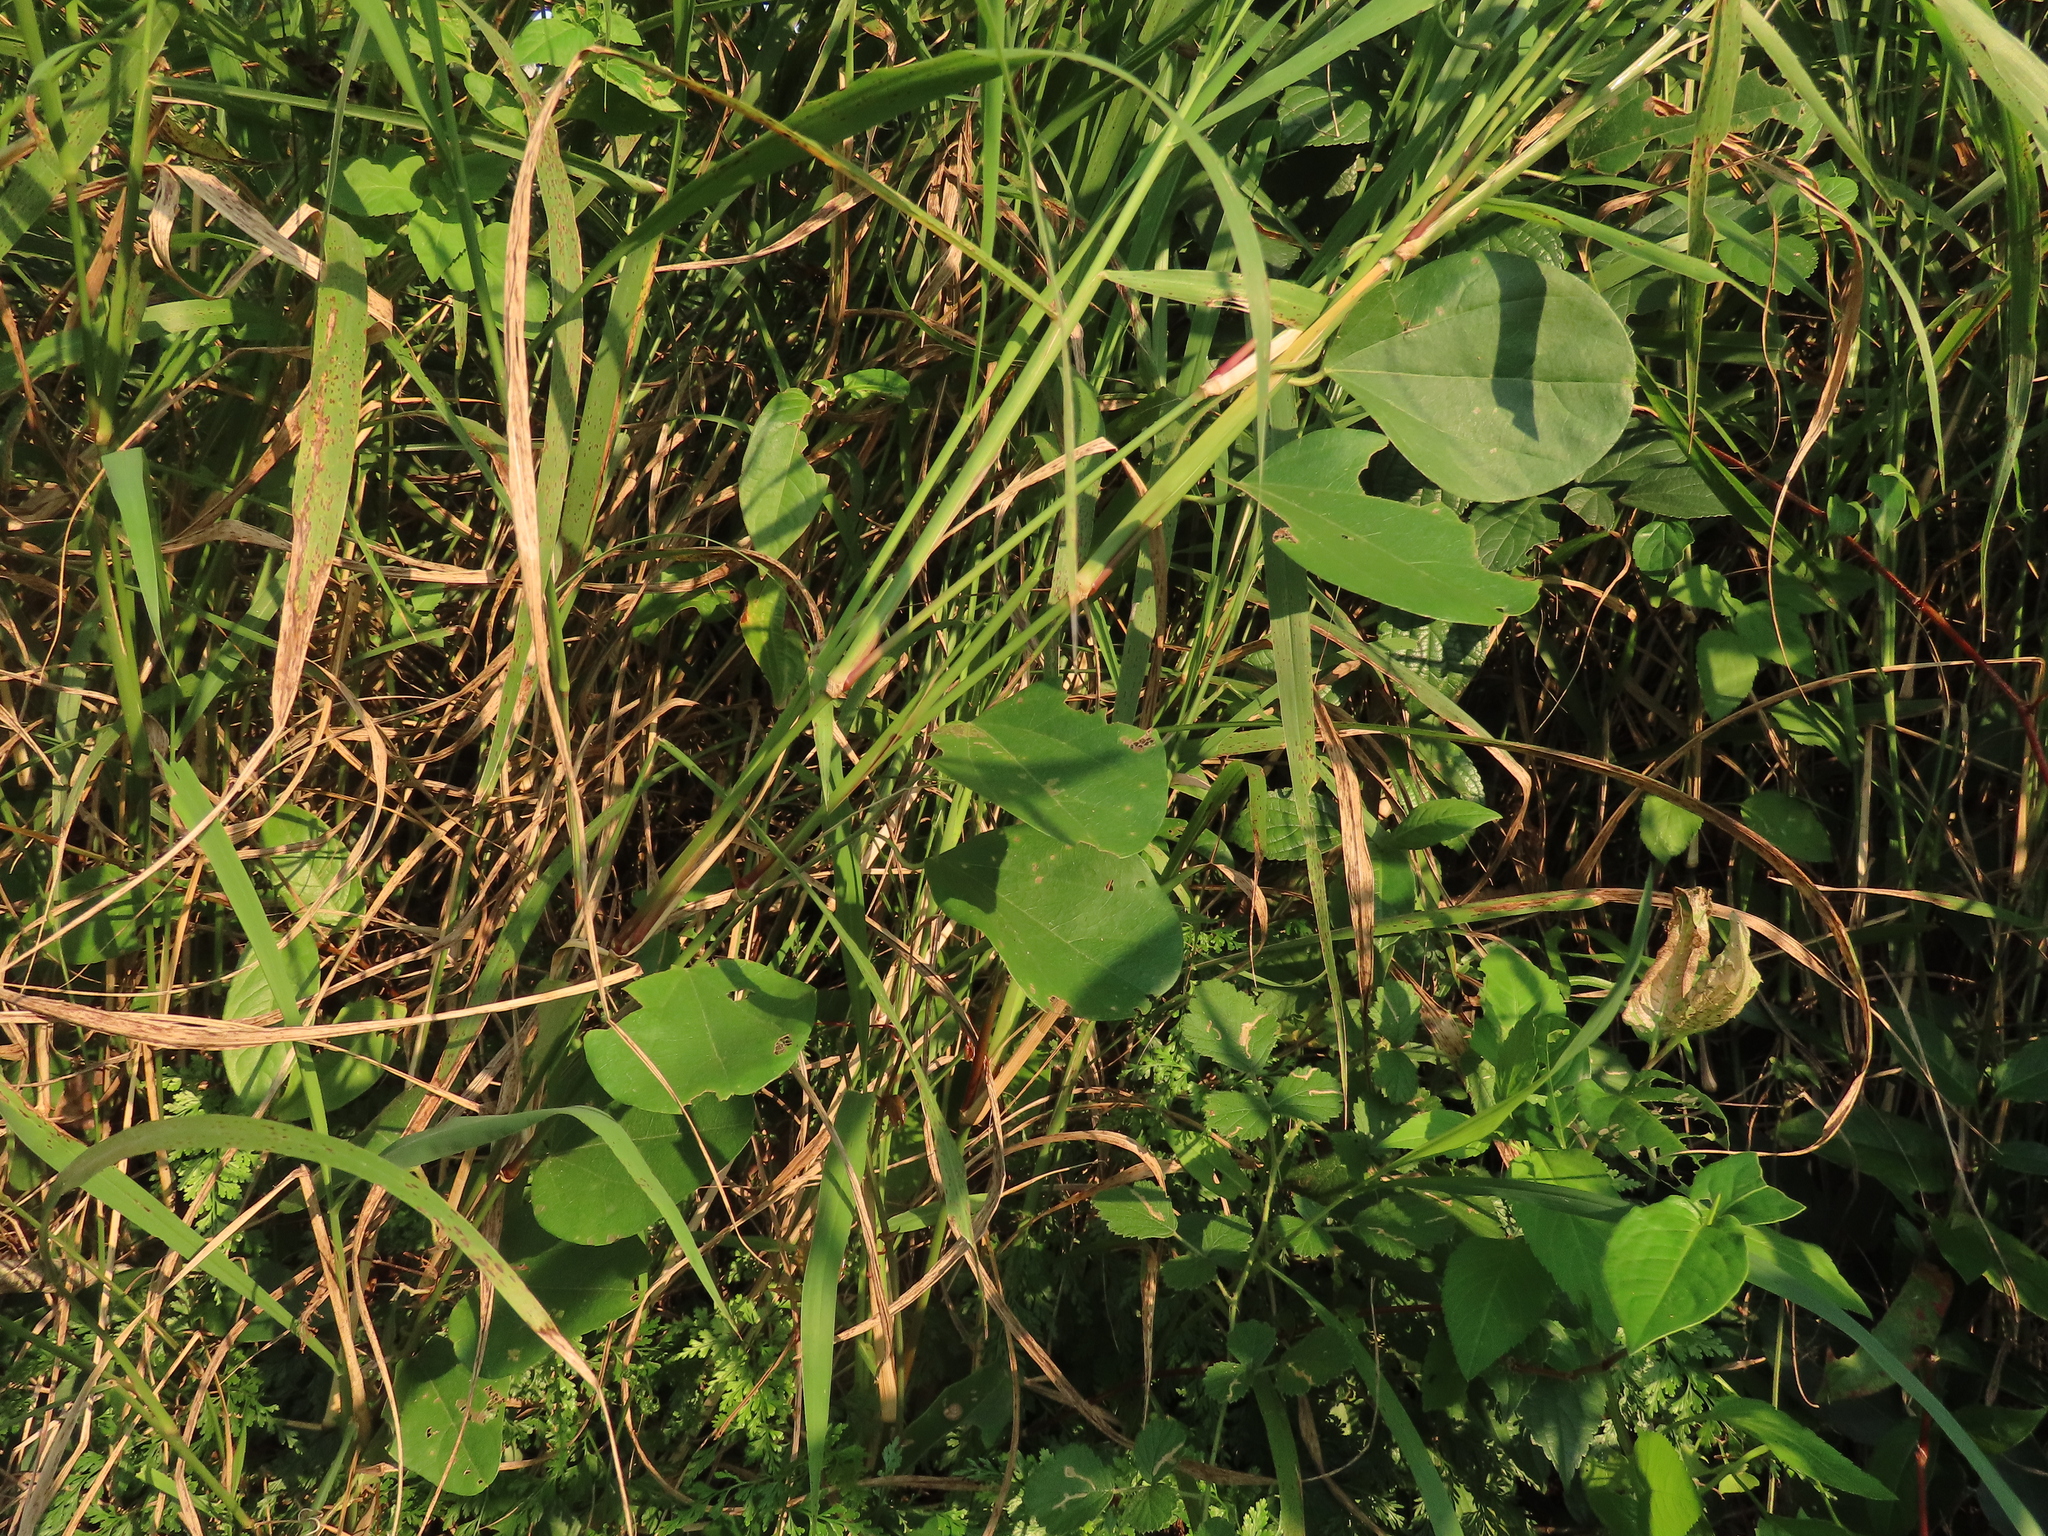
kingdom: Plantae
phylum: Tracheophyta
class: Magnoliopsida
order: Ranunculales
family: Menispermaceae
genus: Cocculus
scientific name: Cocculus orbiculatus
